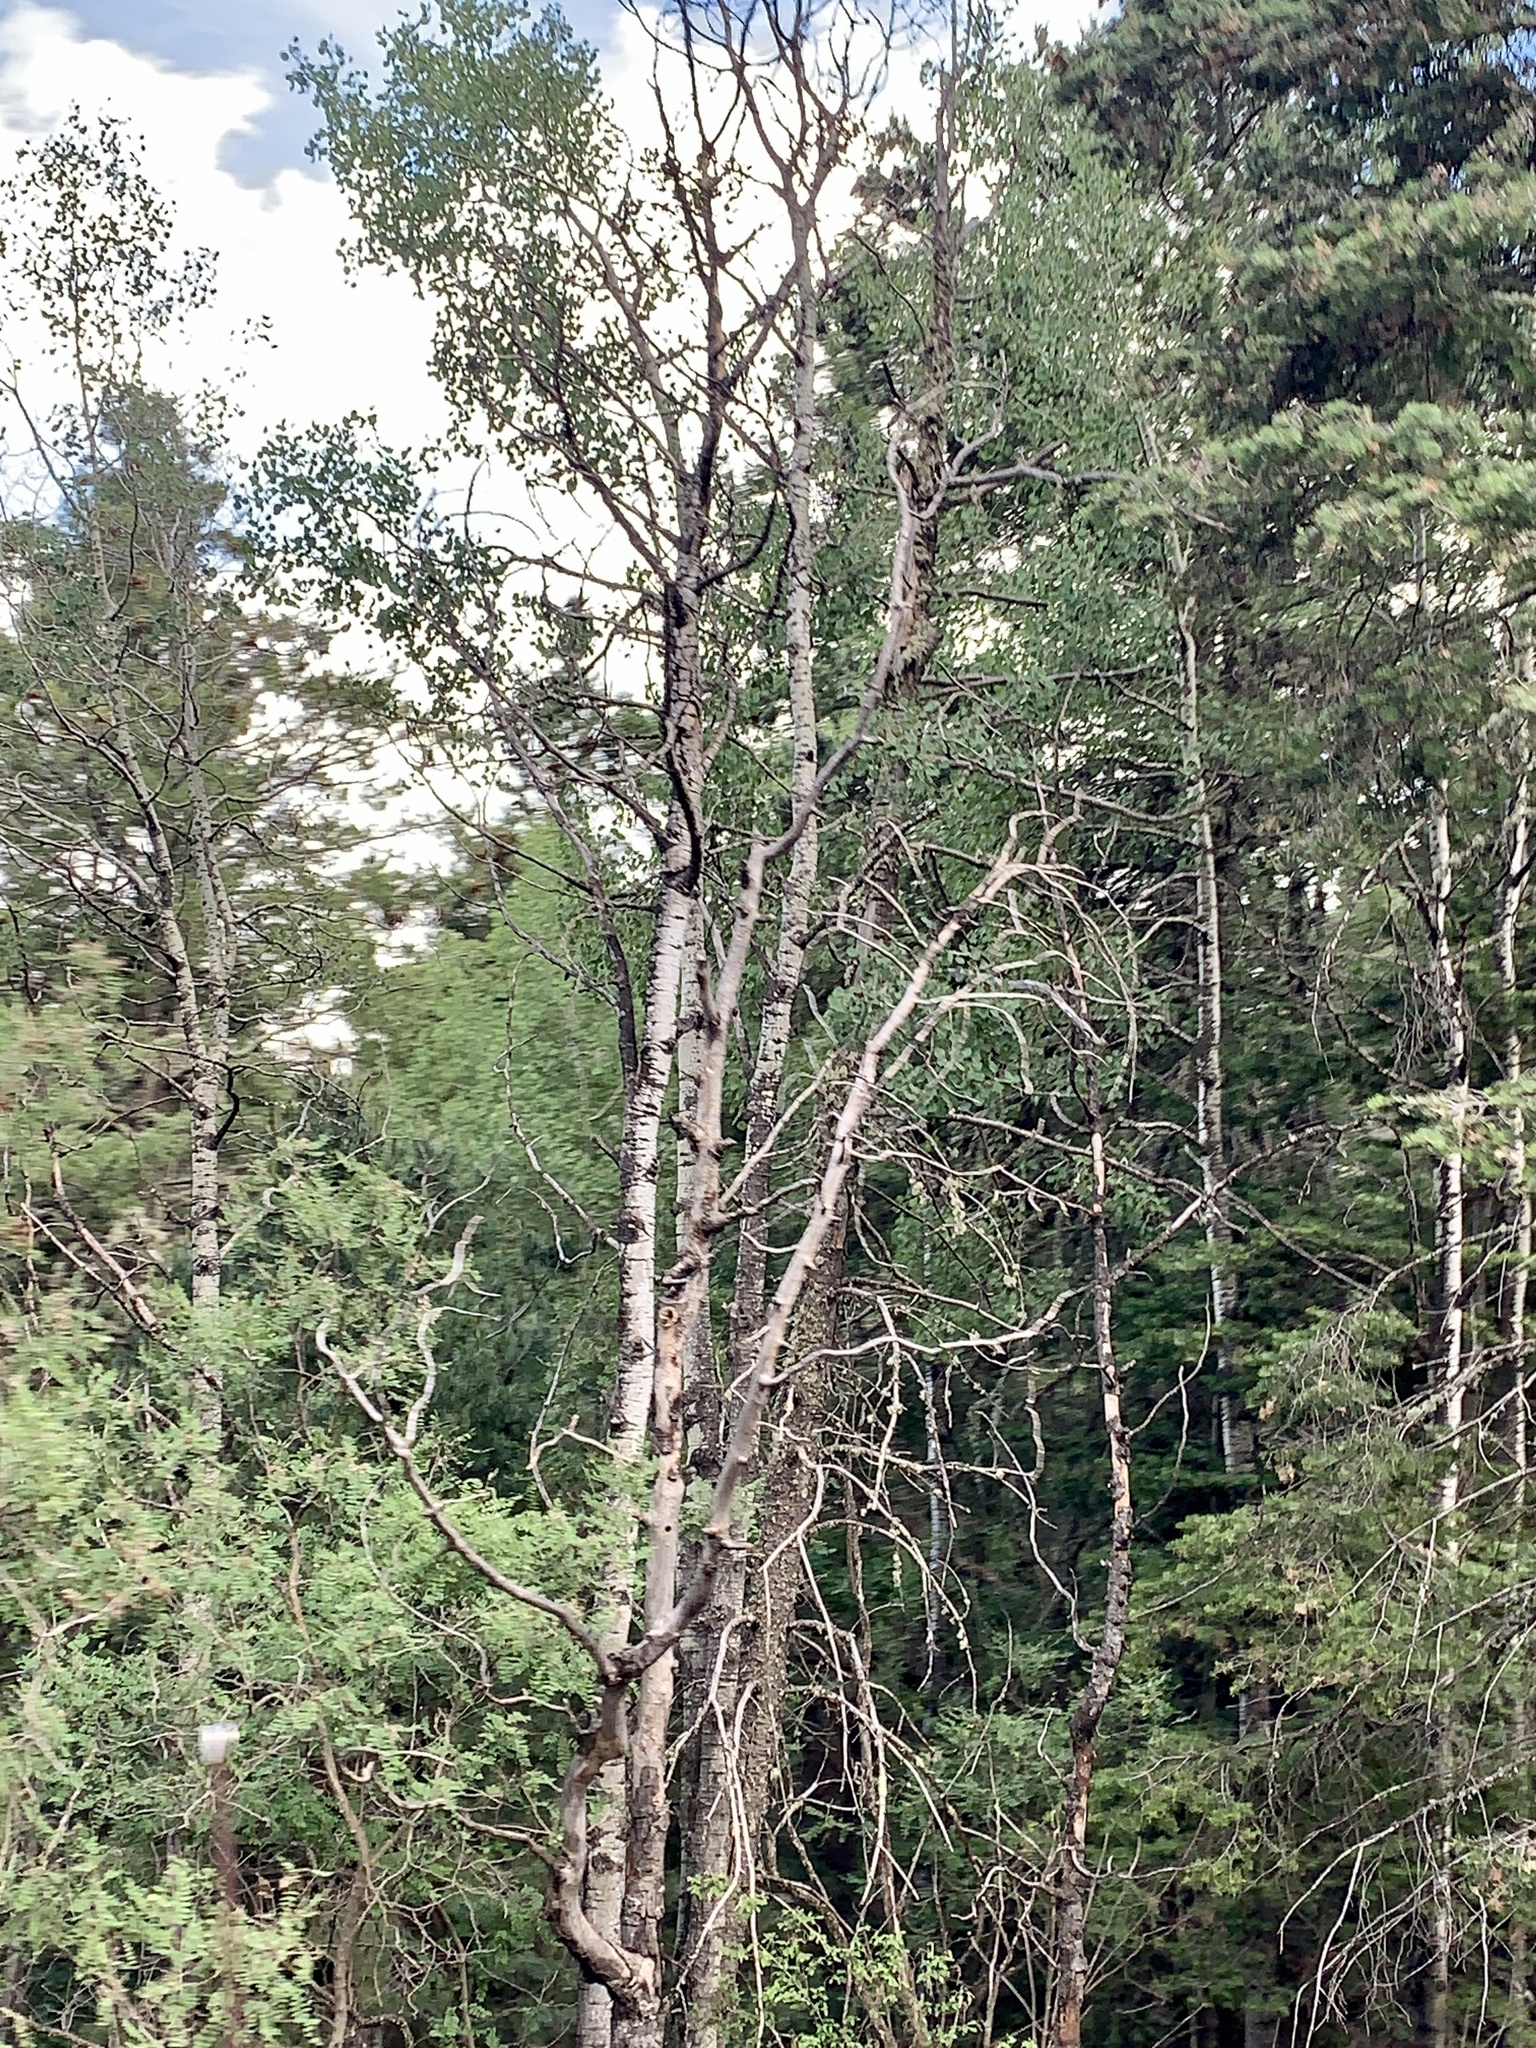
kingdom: Plantae
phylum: Tracheophyta
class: Magnoliopsida
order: Malpighiales
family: Salicaceae
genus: Populus
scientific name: Populus tremuloides
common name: Quaking aspen
